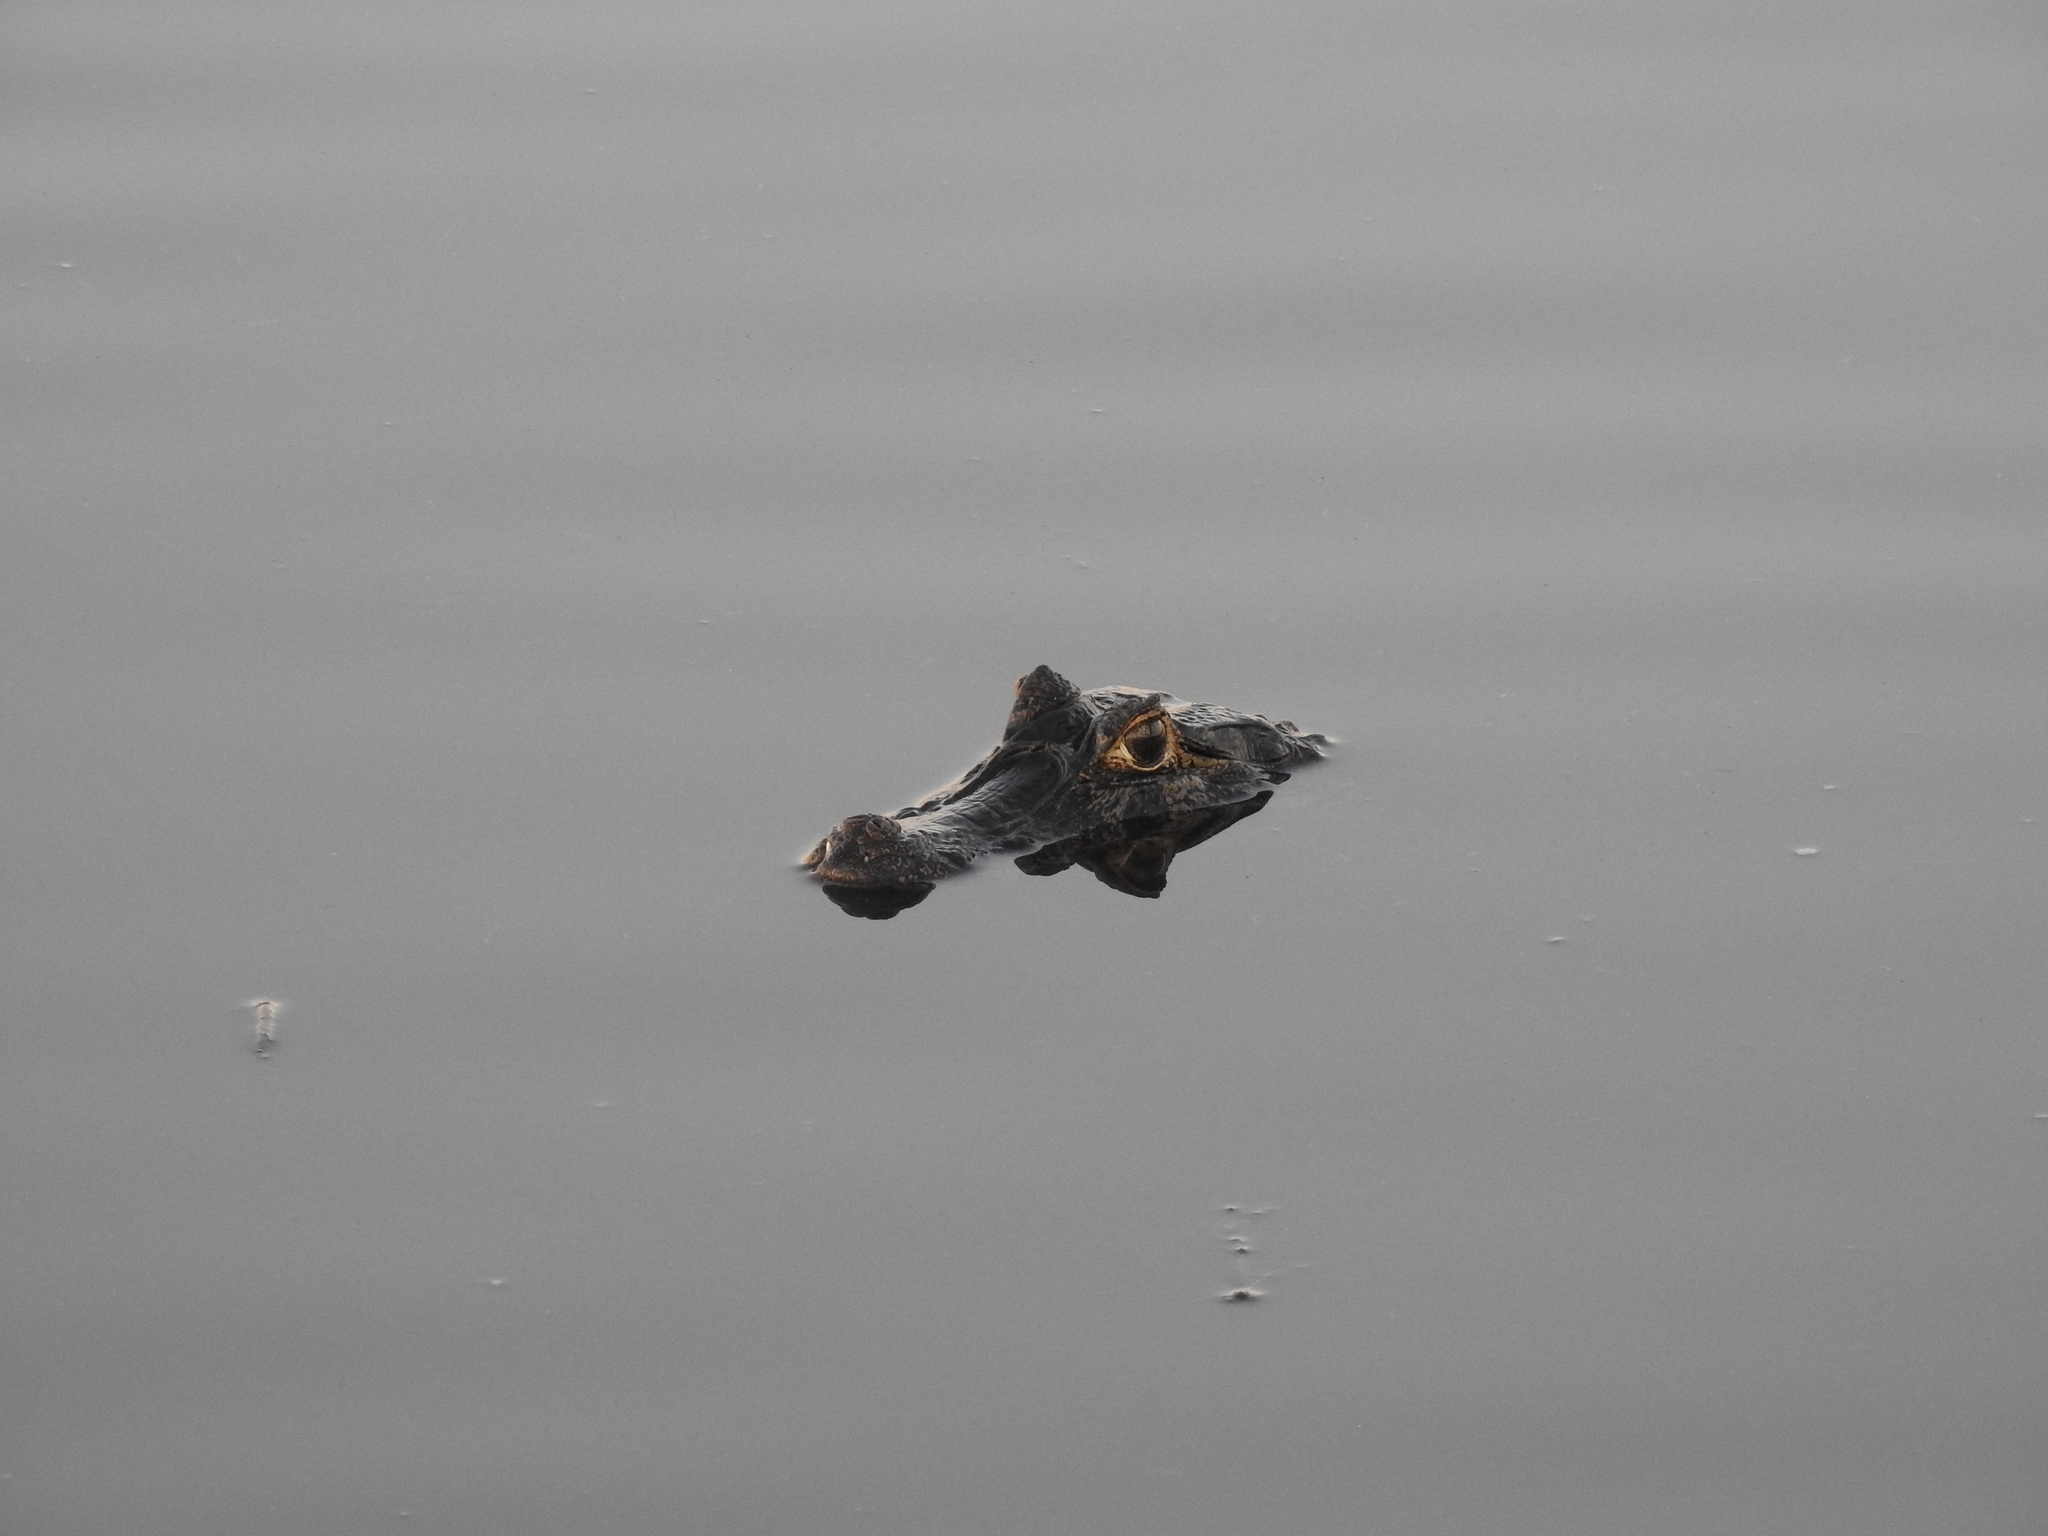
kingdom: Animalia
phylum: Chordata
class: Crocodylia
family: Alligatoridae
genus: Caiman
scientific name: Caiman yacare
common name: Yacare caiman
